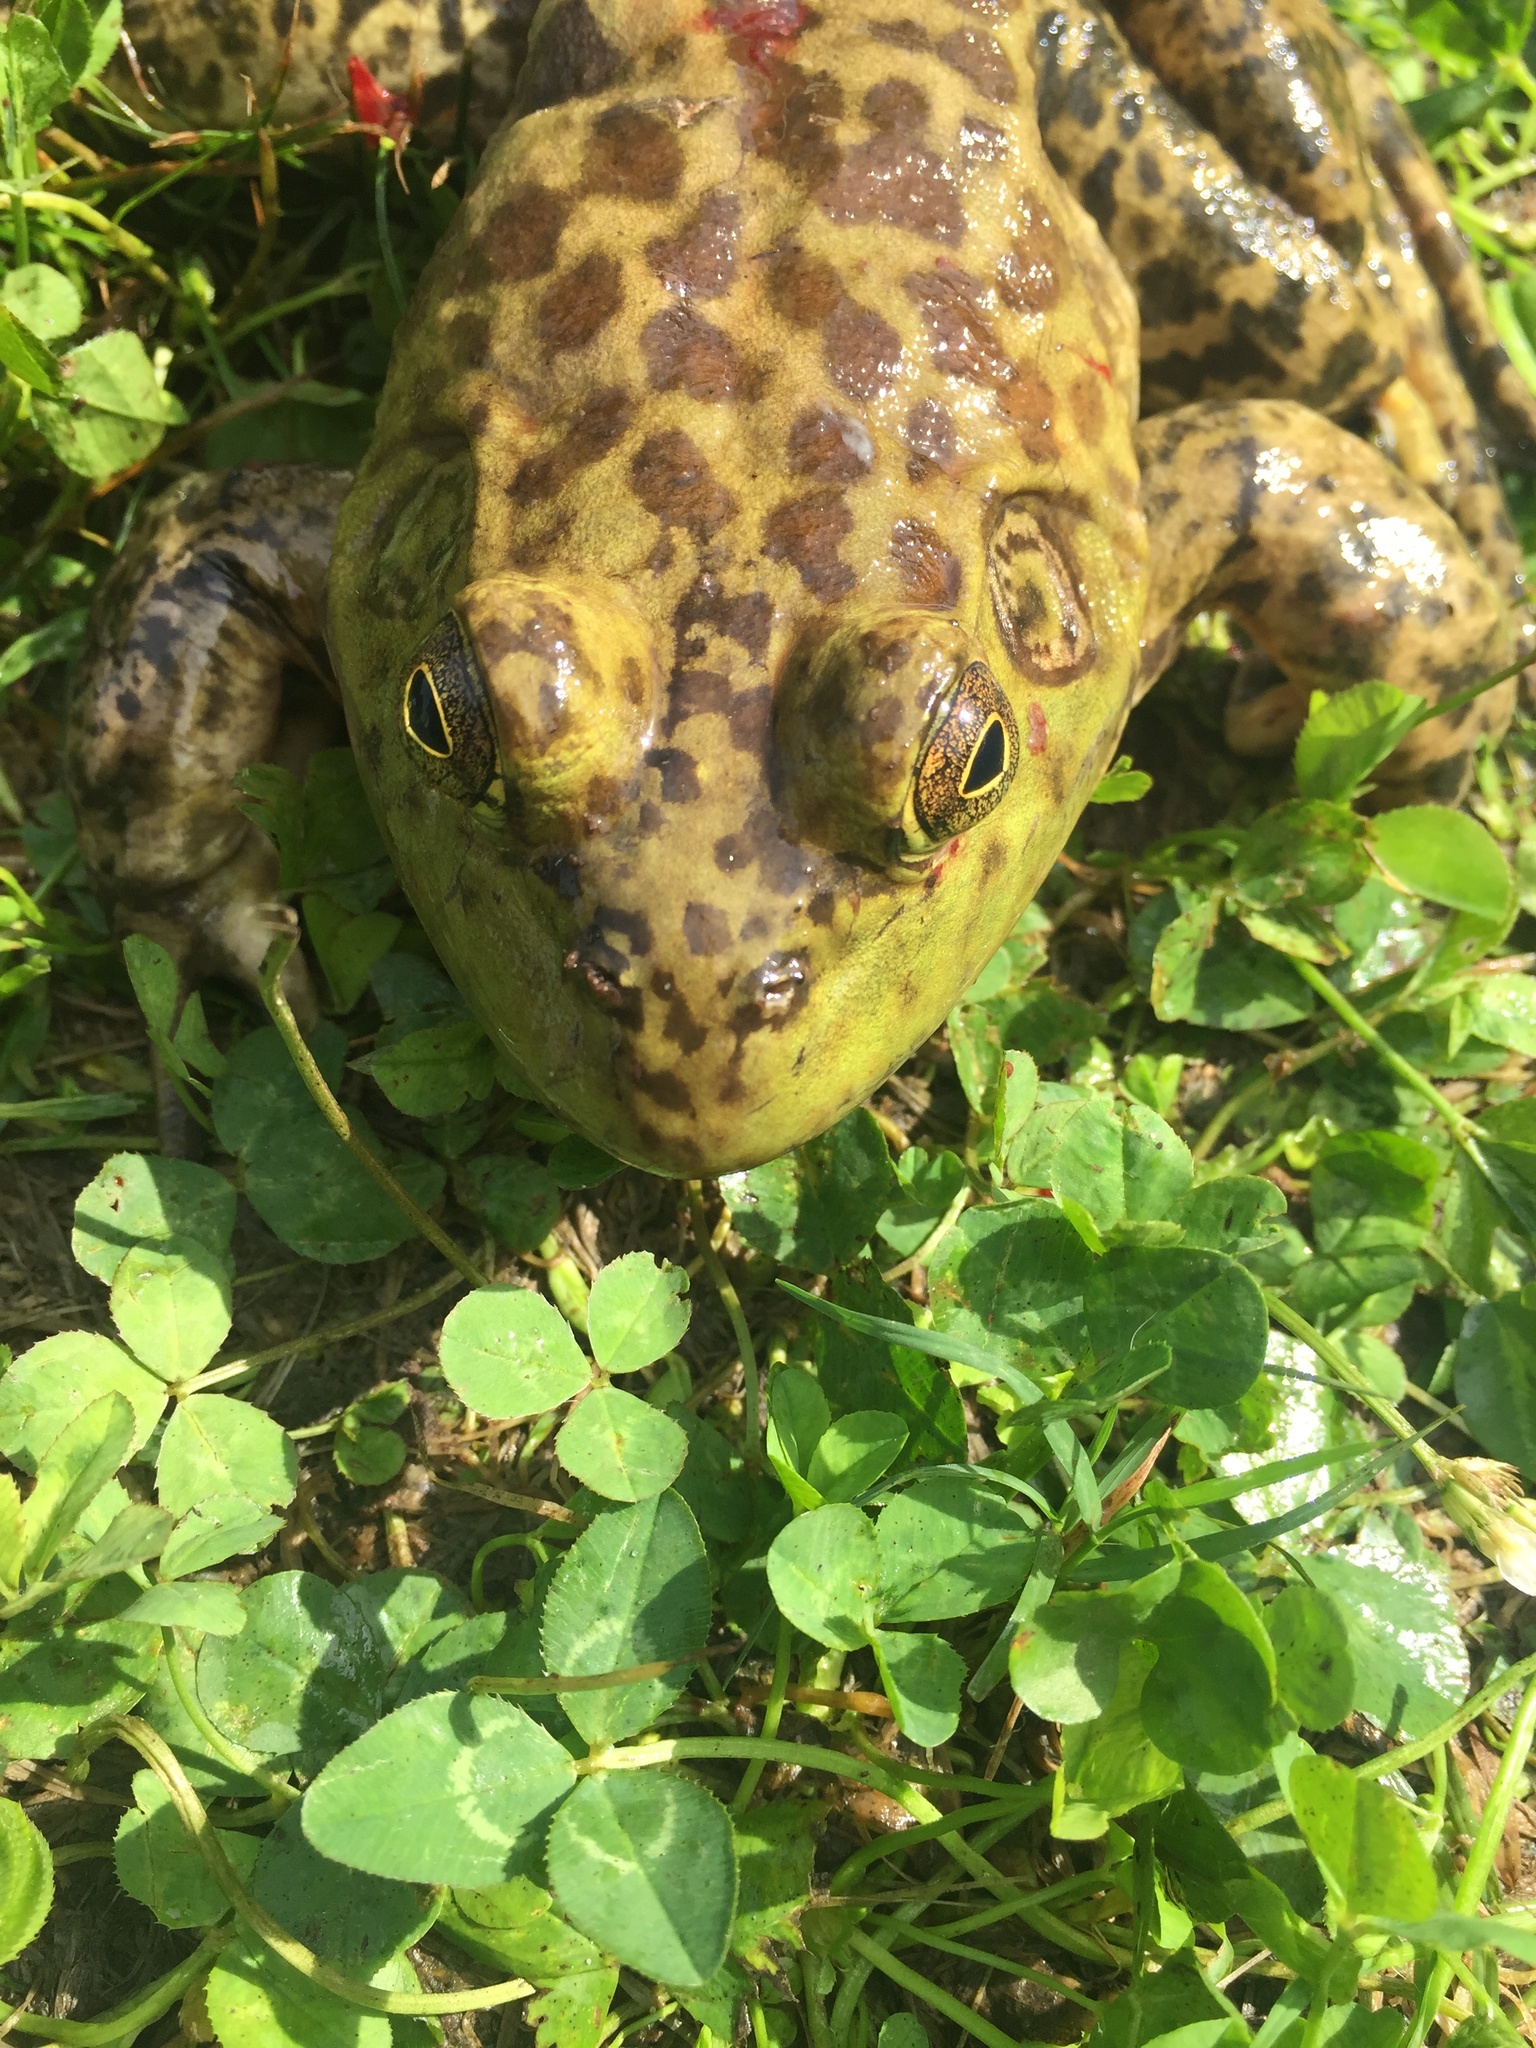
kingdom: Animalia
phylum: Chordata
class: Amphibia
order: Anura
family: Ranidae
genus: Lithobates
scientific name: Lithobates catesbeianus
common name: American bullfrog
